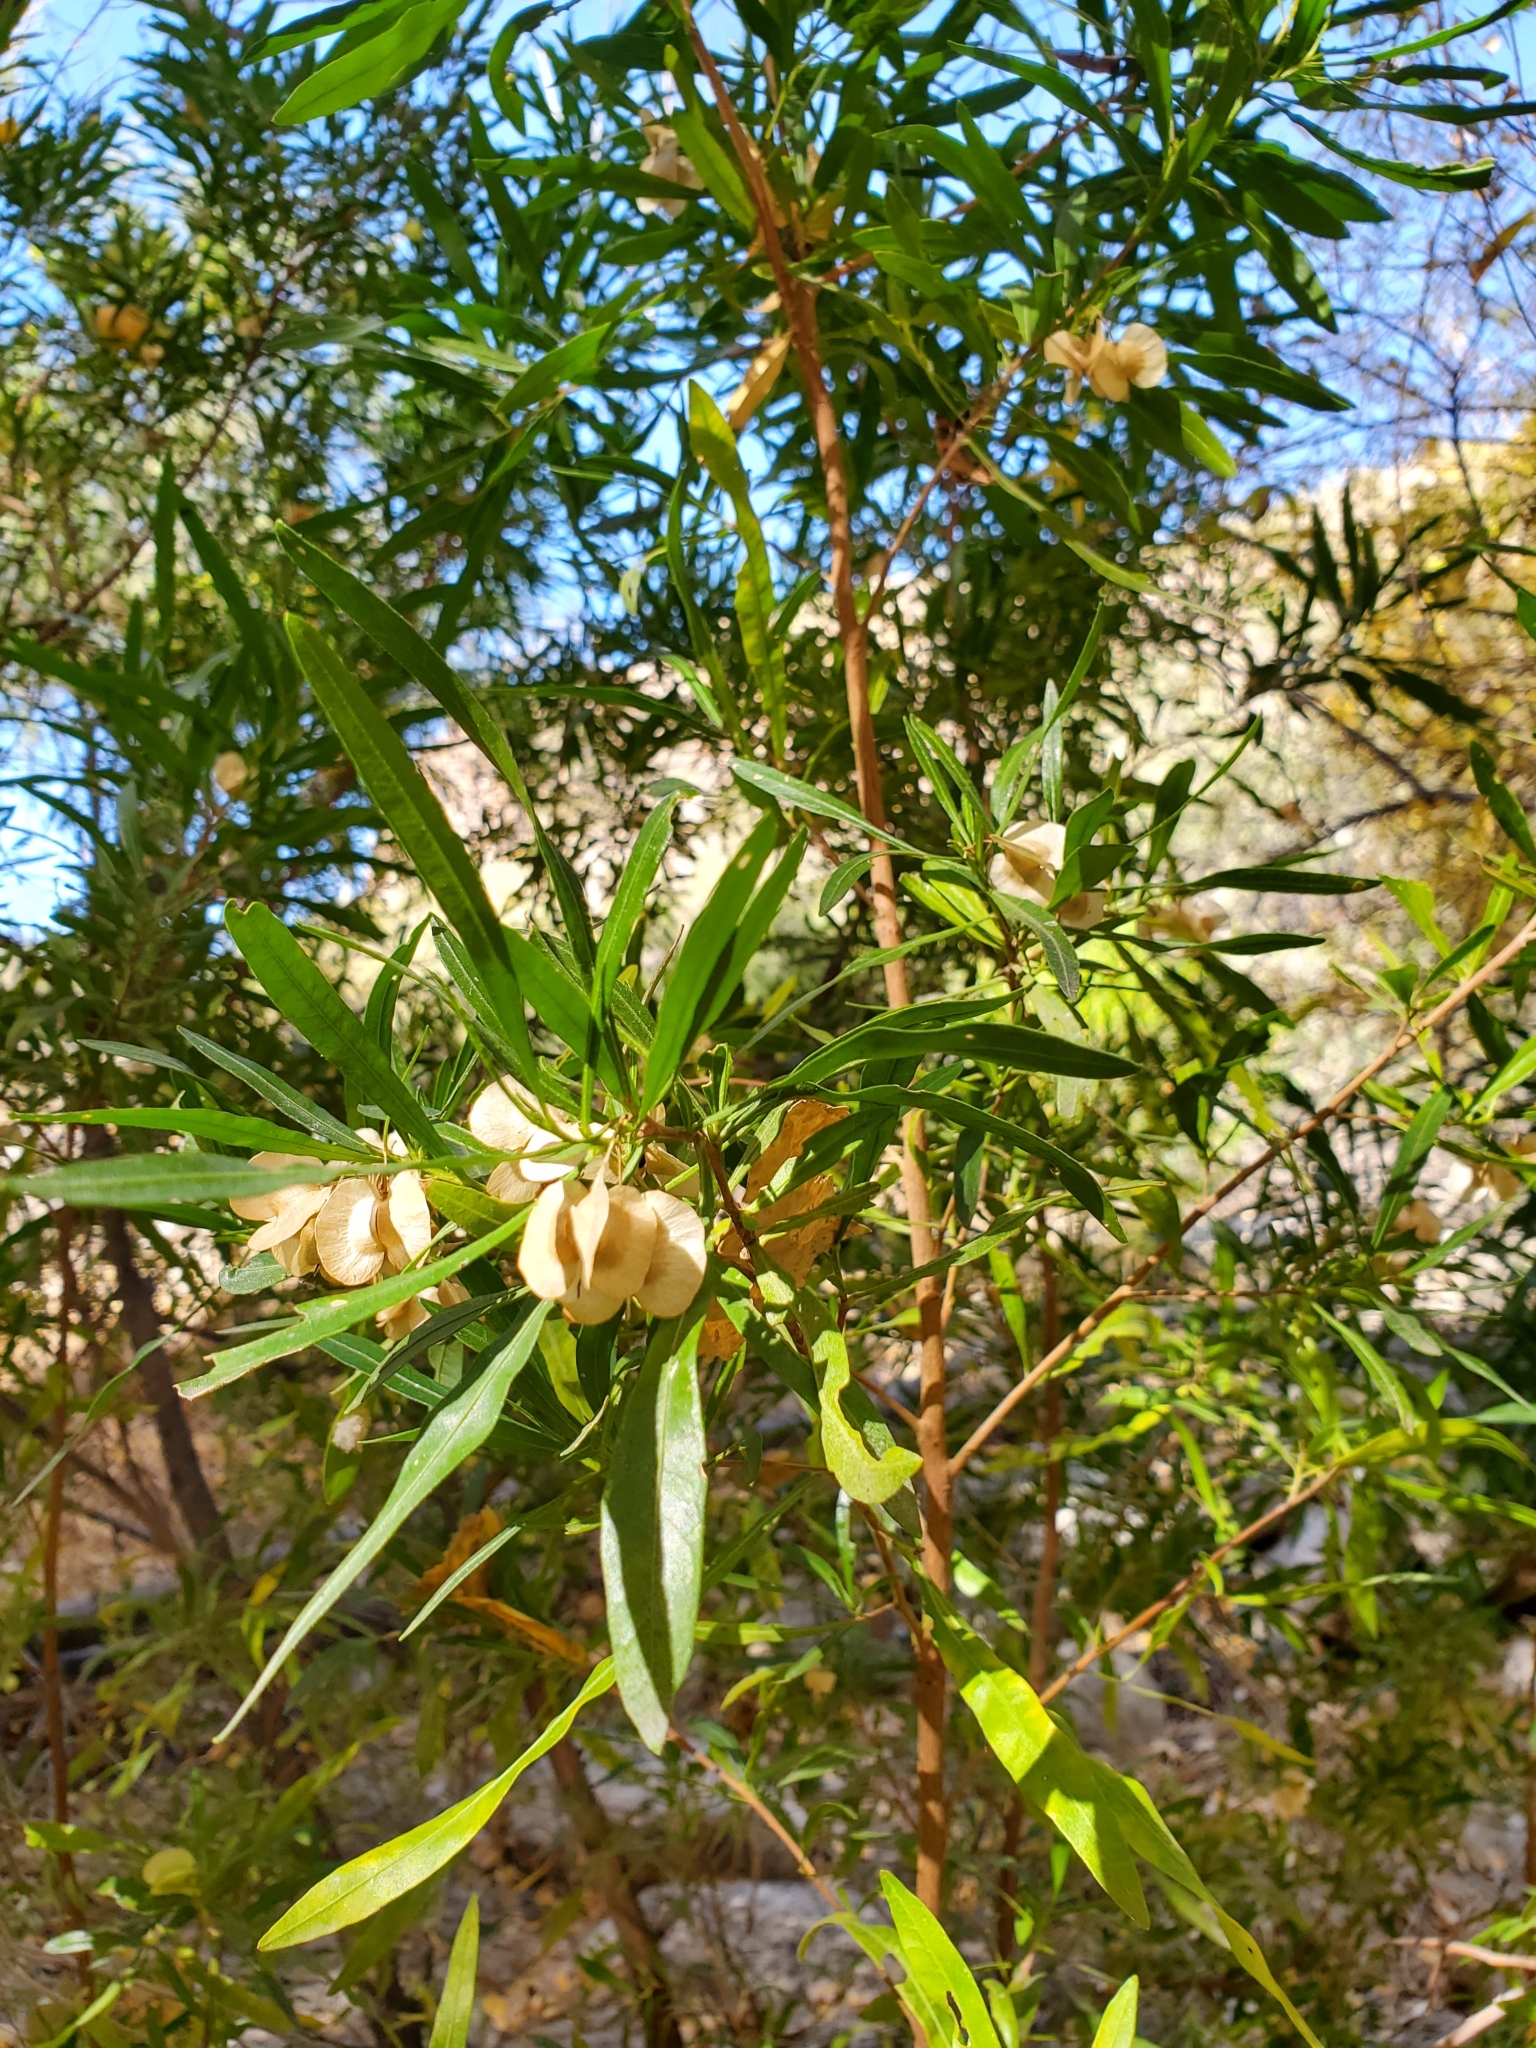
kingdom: Plantae
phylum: Tracheophyta
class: Magnoliopsida
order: Sapindales
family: Sapindaceae
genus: Dodonaea
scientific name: Dodonaea viscosa
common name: Hopbush
